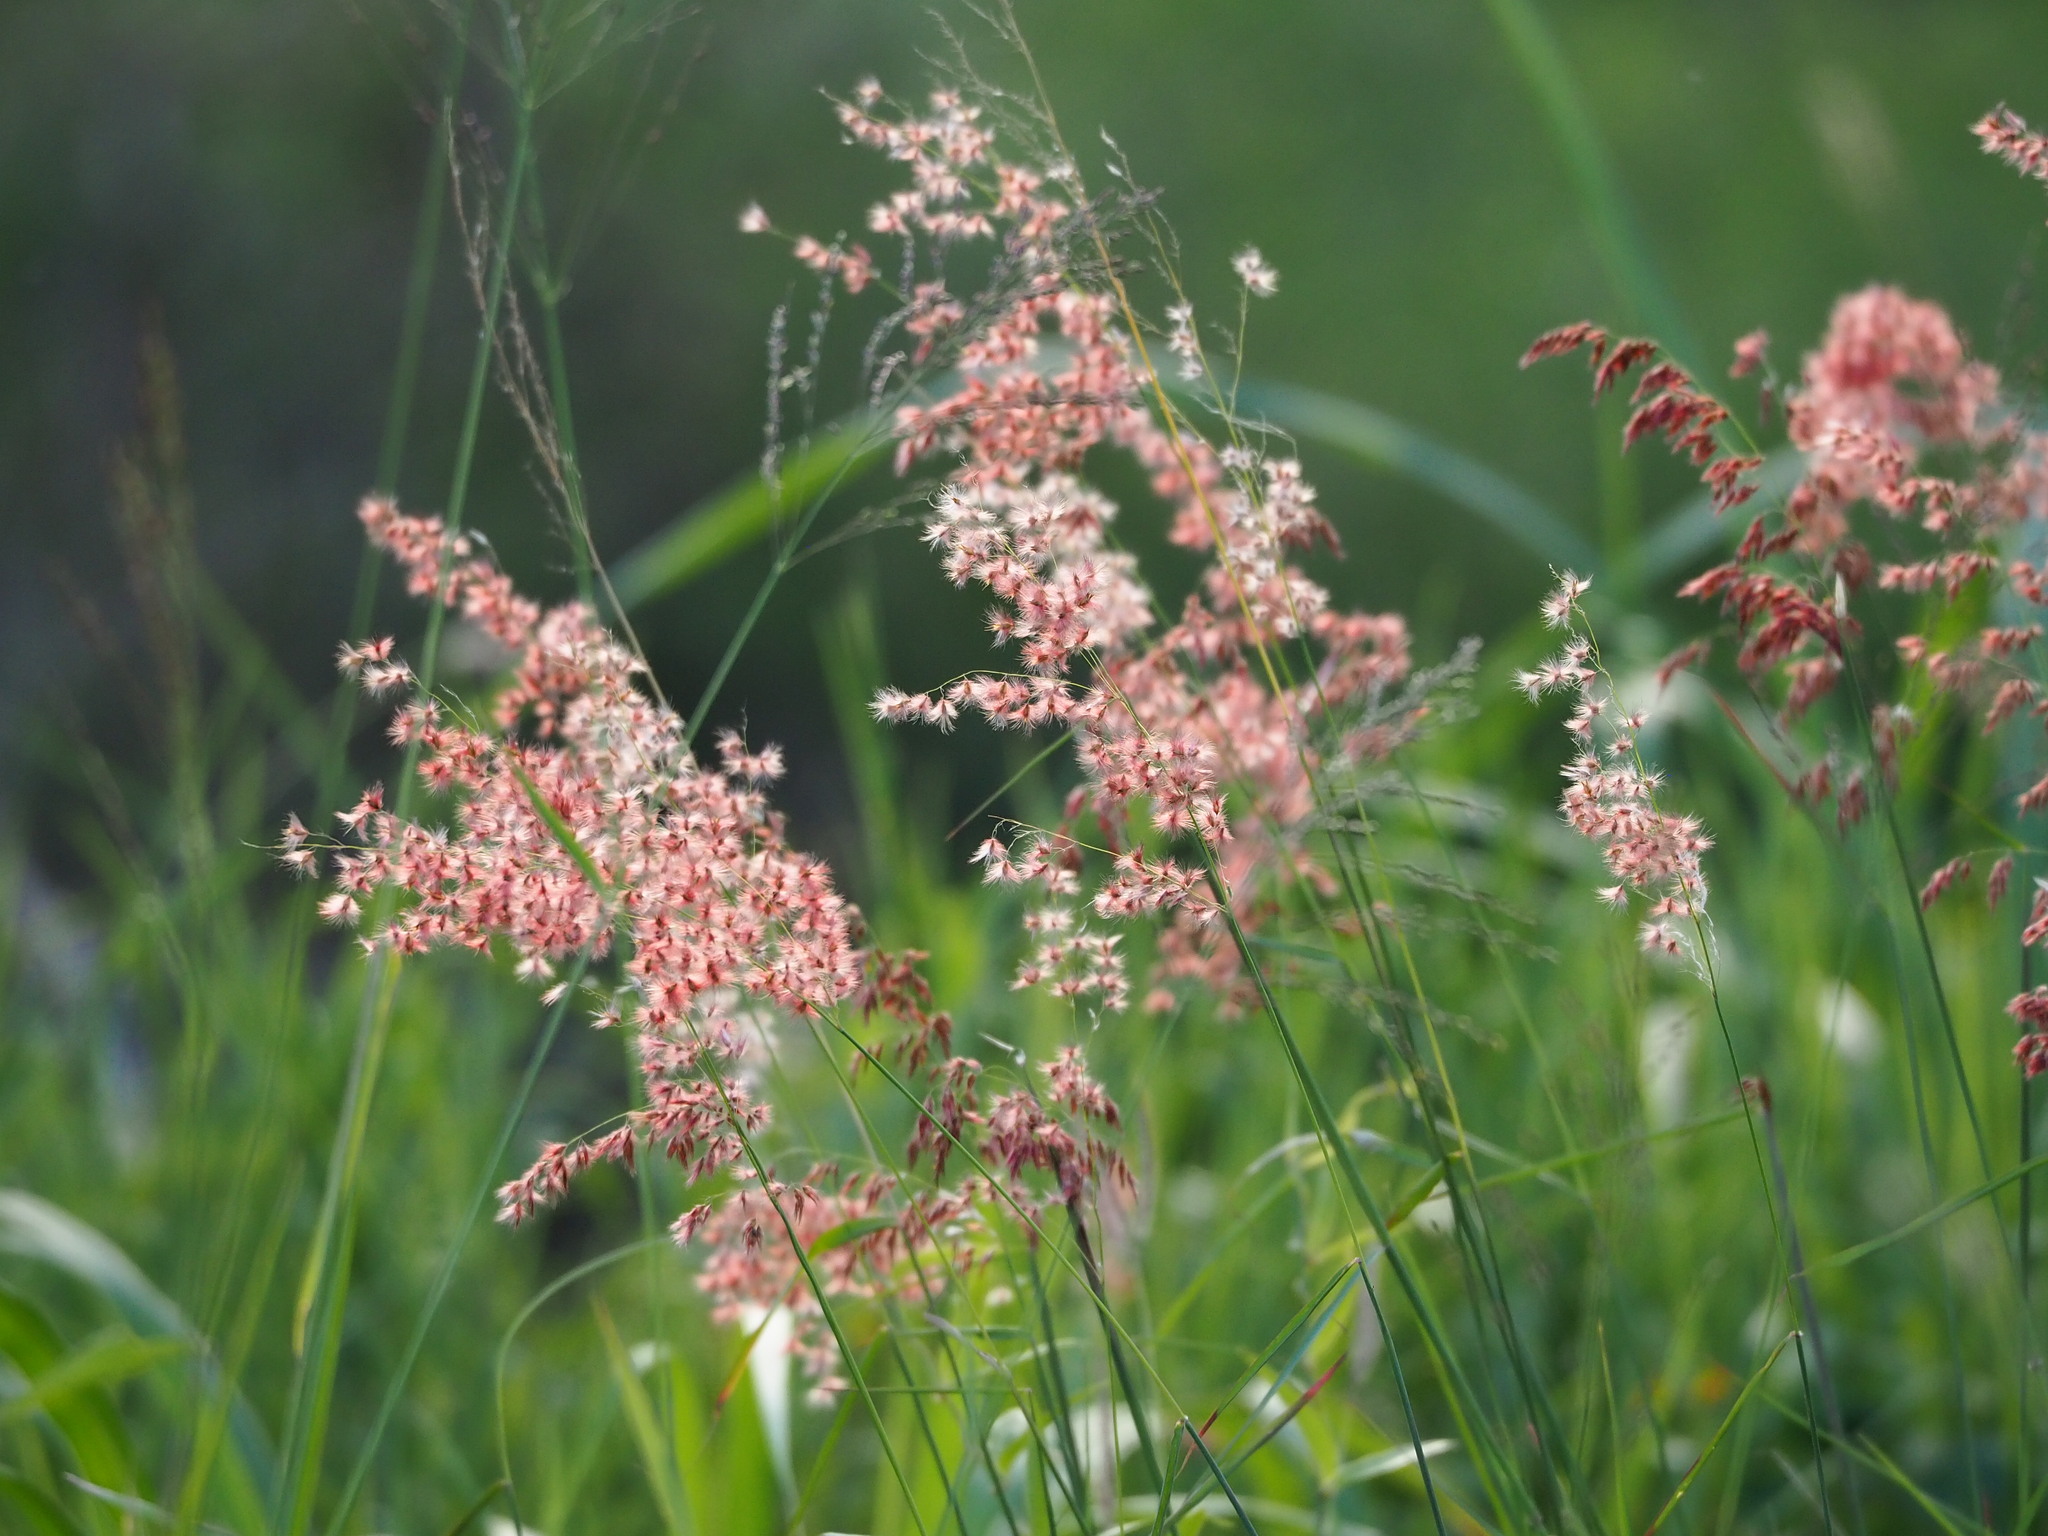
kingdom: Plantae
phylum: Tracheophyta
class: Liliopsida
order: Poales
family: Poaceae
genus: Melinis
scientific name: Melinis repens
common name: Rose natal grass
